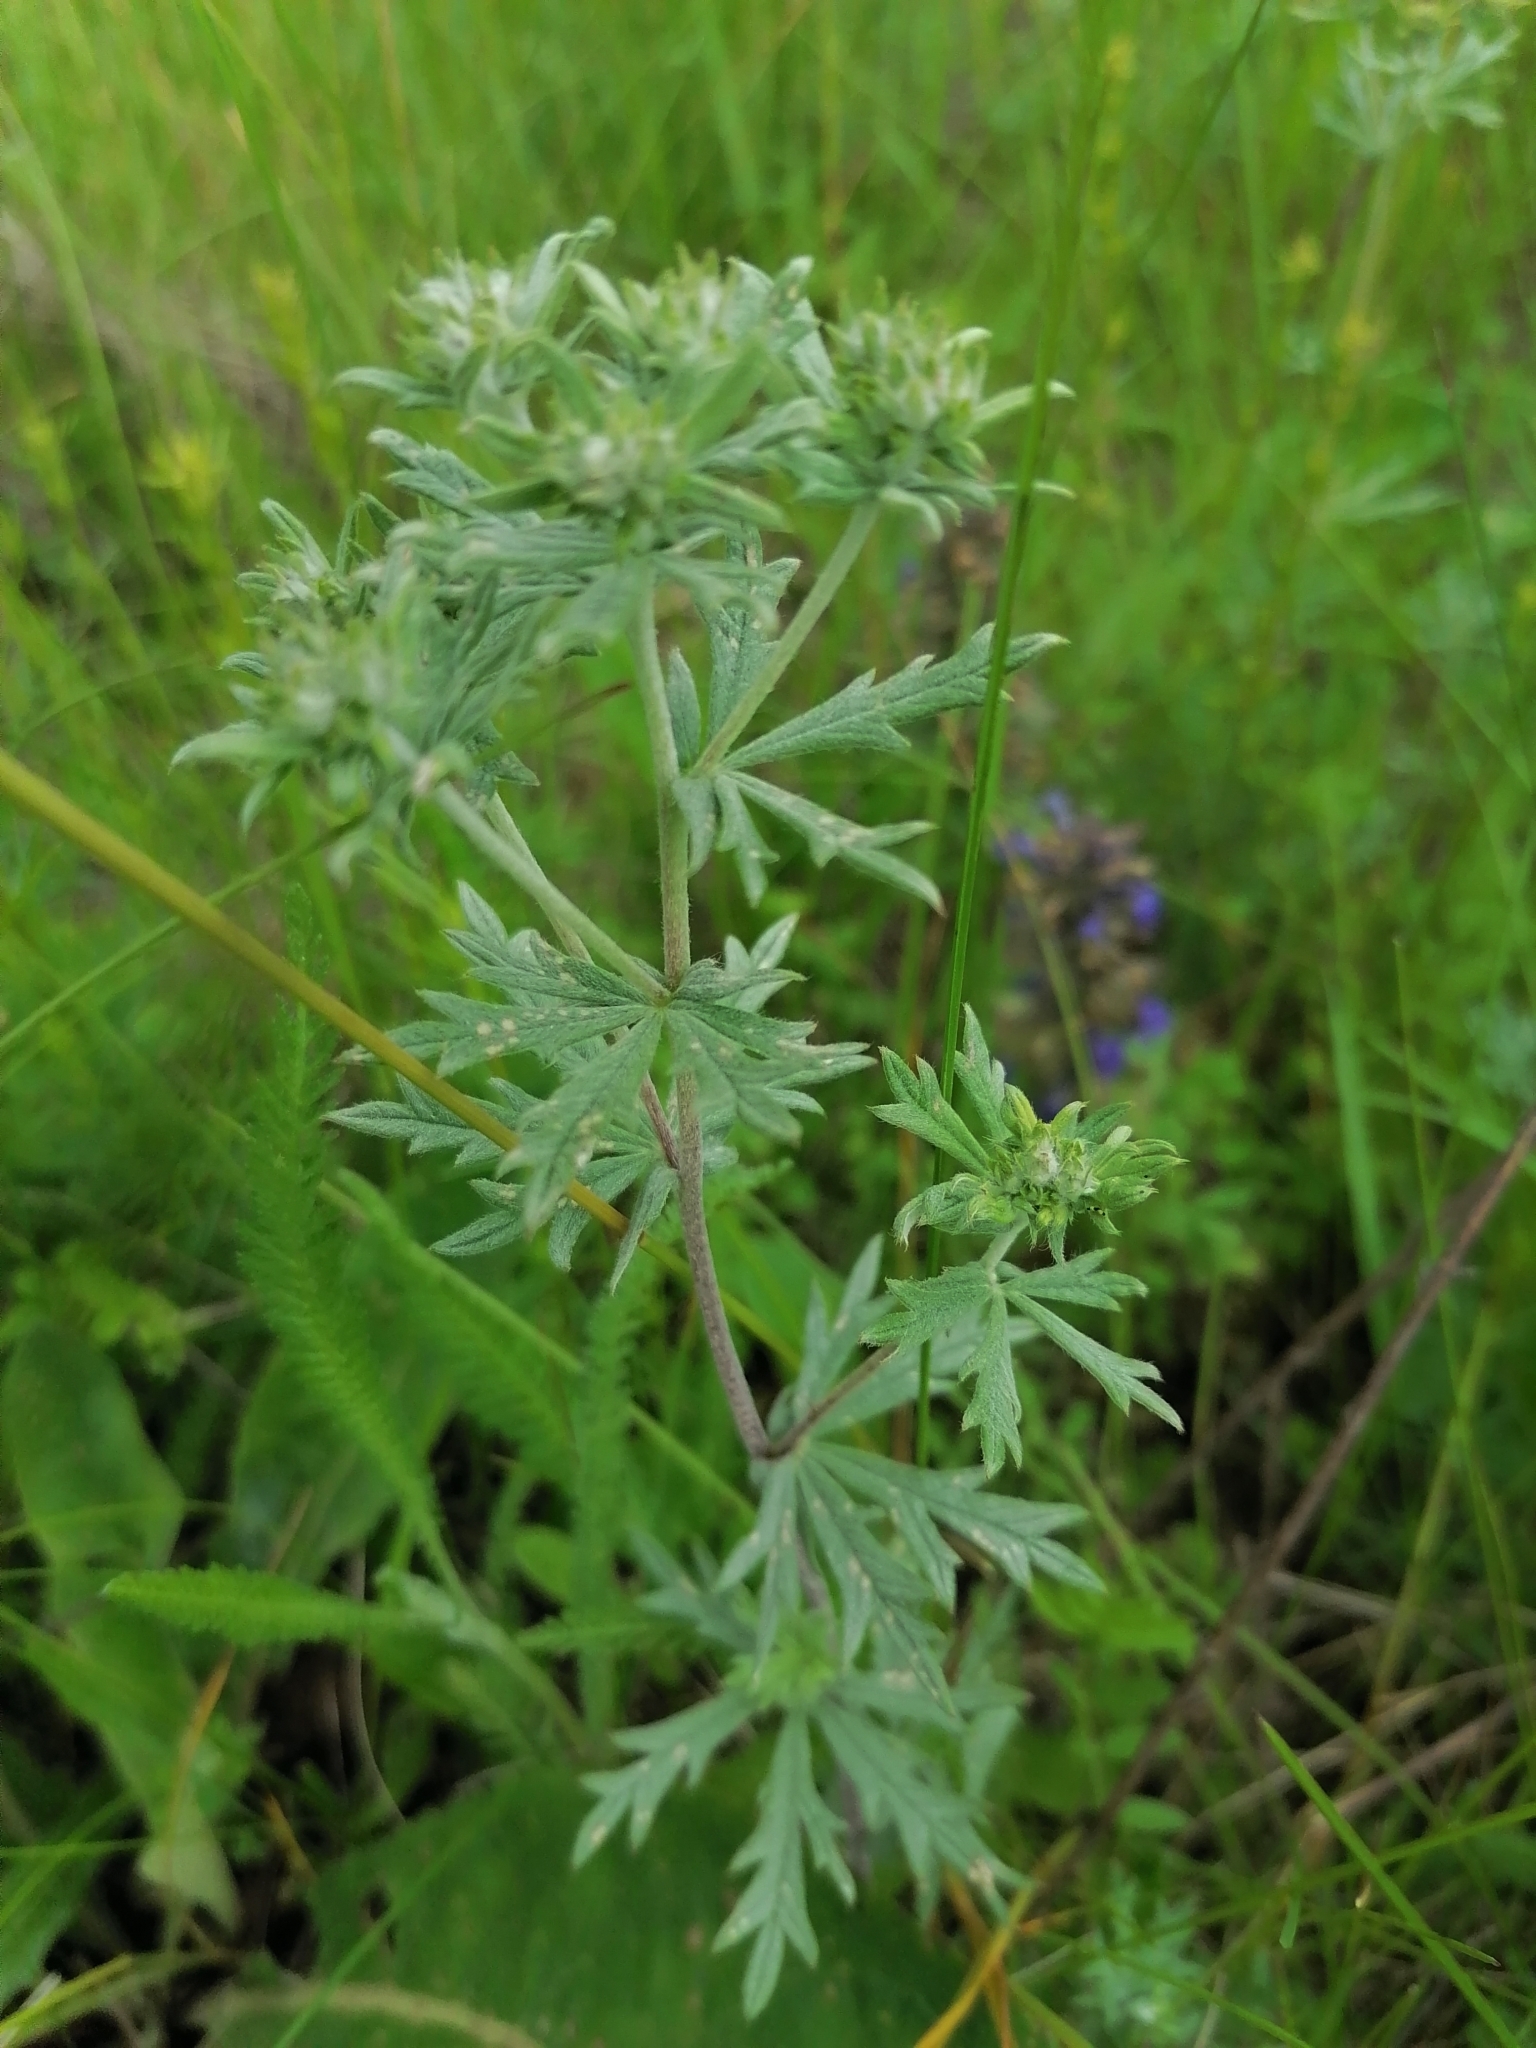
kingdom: Plantae
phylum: Tracheophyta
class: Magnoliopsida
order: Rosales
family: Rosaceae
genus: Potentilla
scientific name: Potentilla argentea
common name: Hoary cinquefoil
